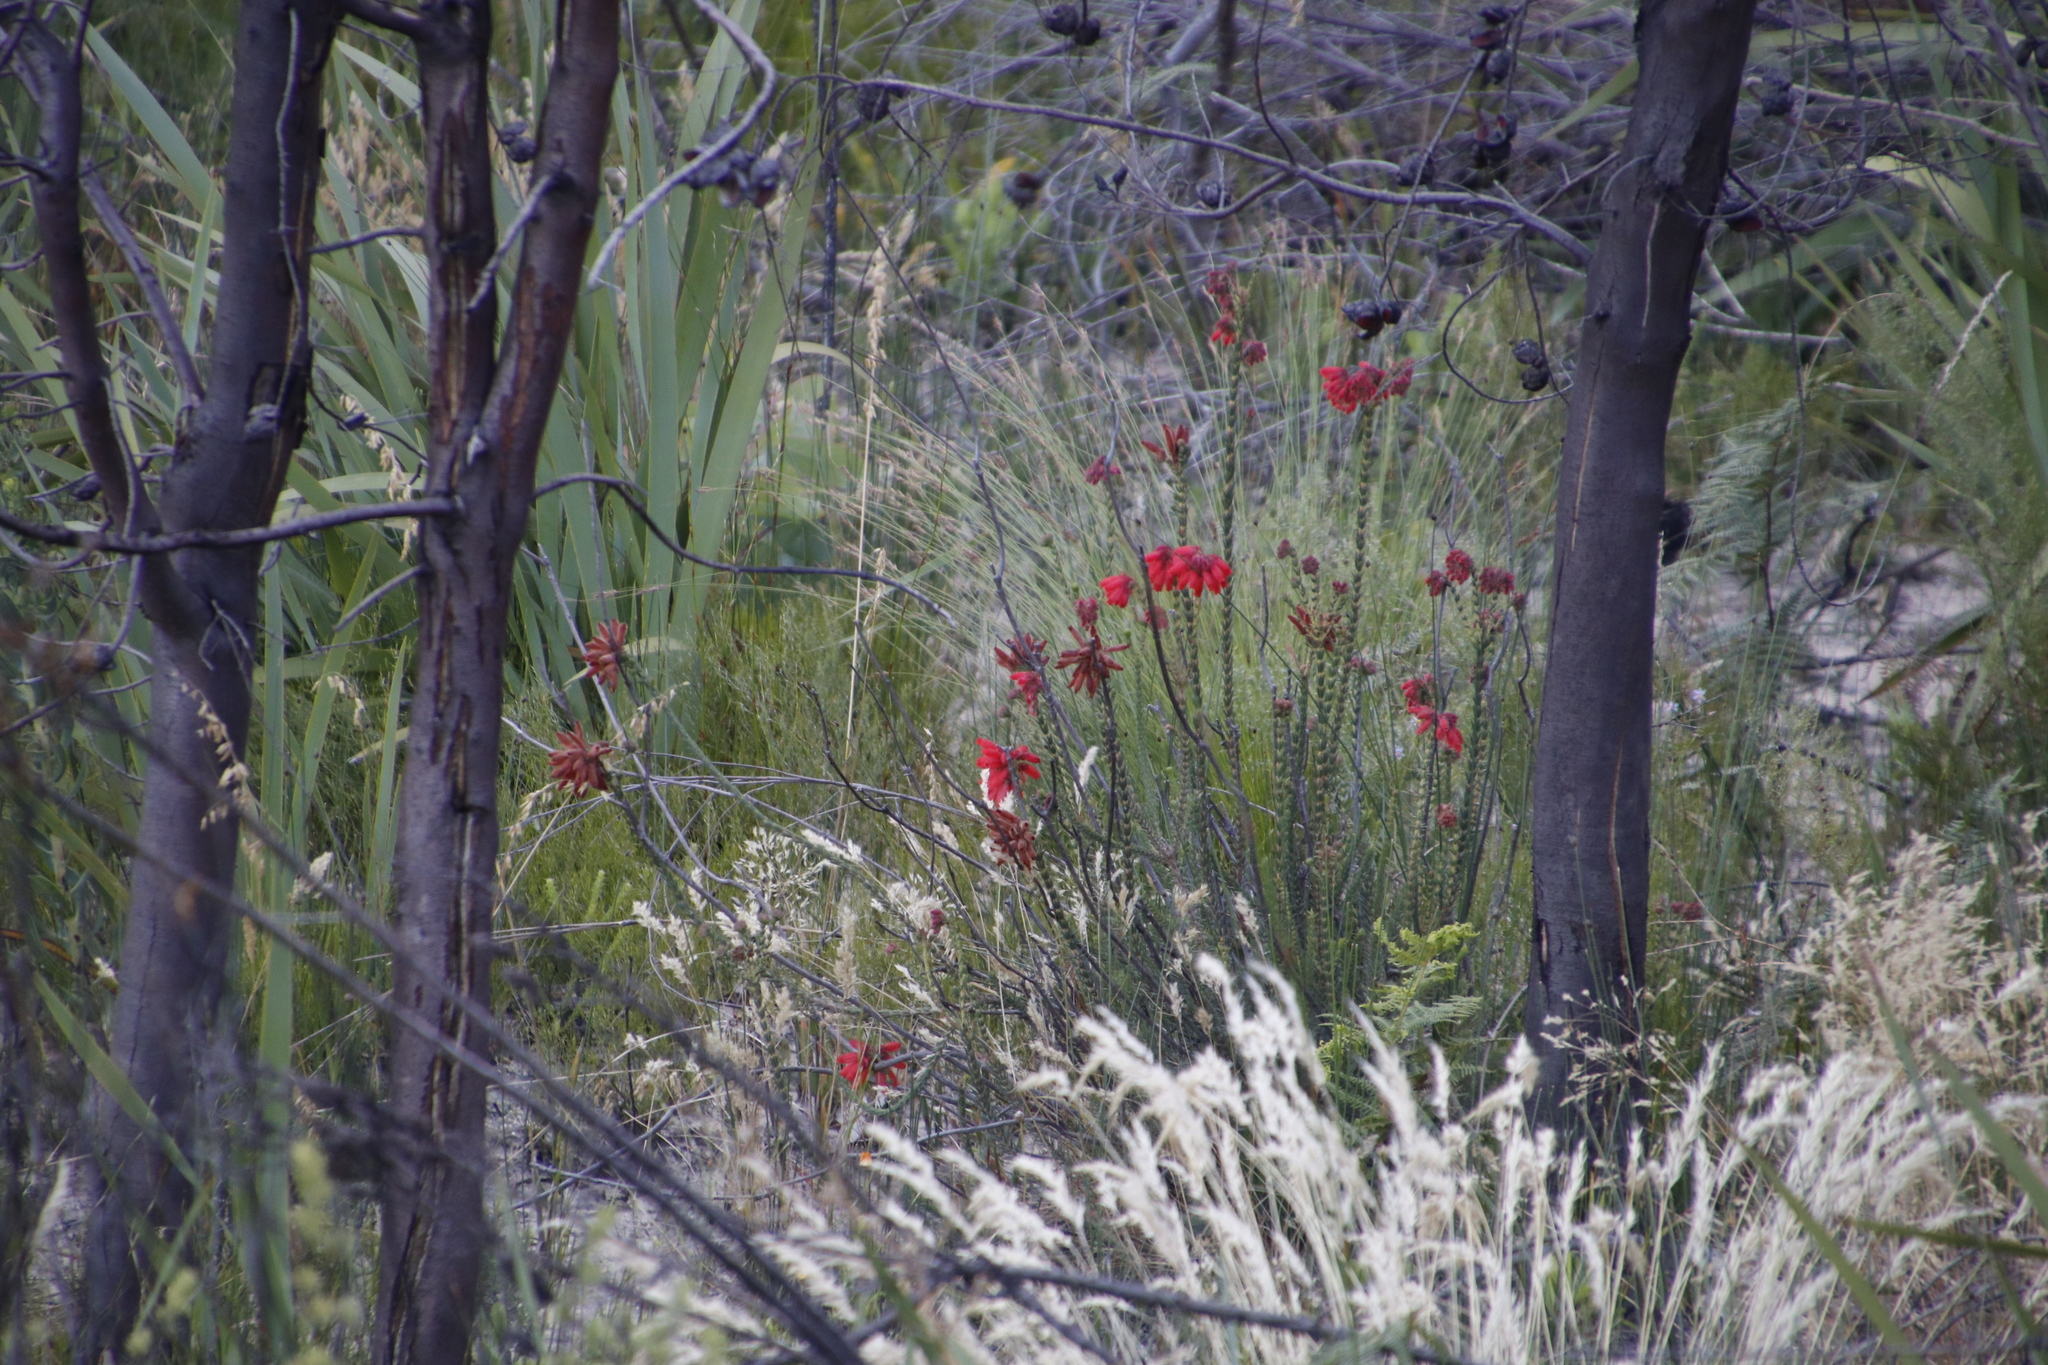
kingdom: Plantae
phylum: Tracheophyta
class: Magnoliopsida
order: Ericales
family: Ericaceae
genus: Erica
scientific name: Erica cerinthoides
